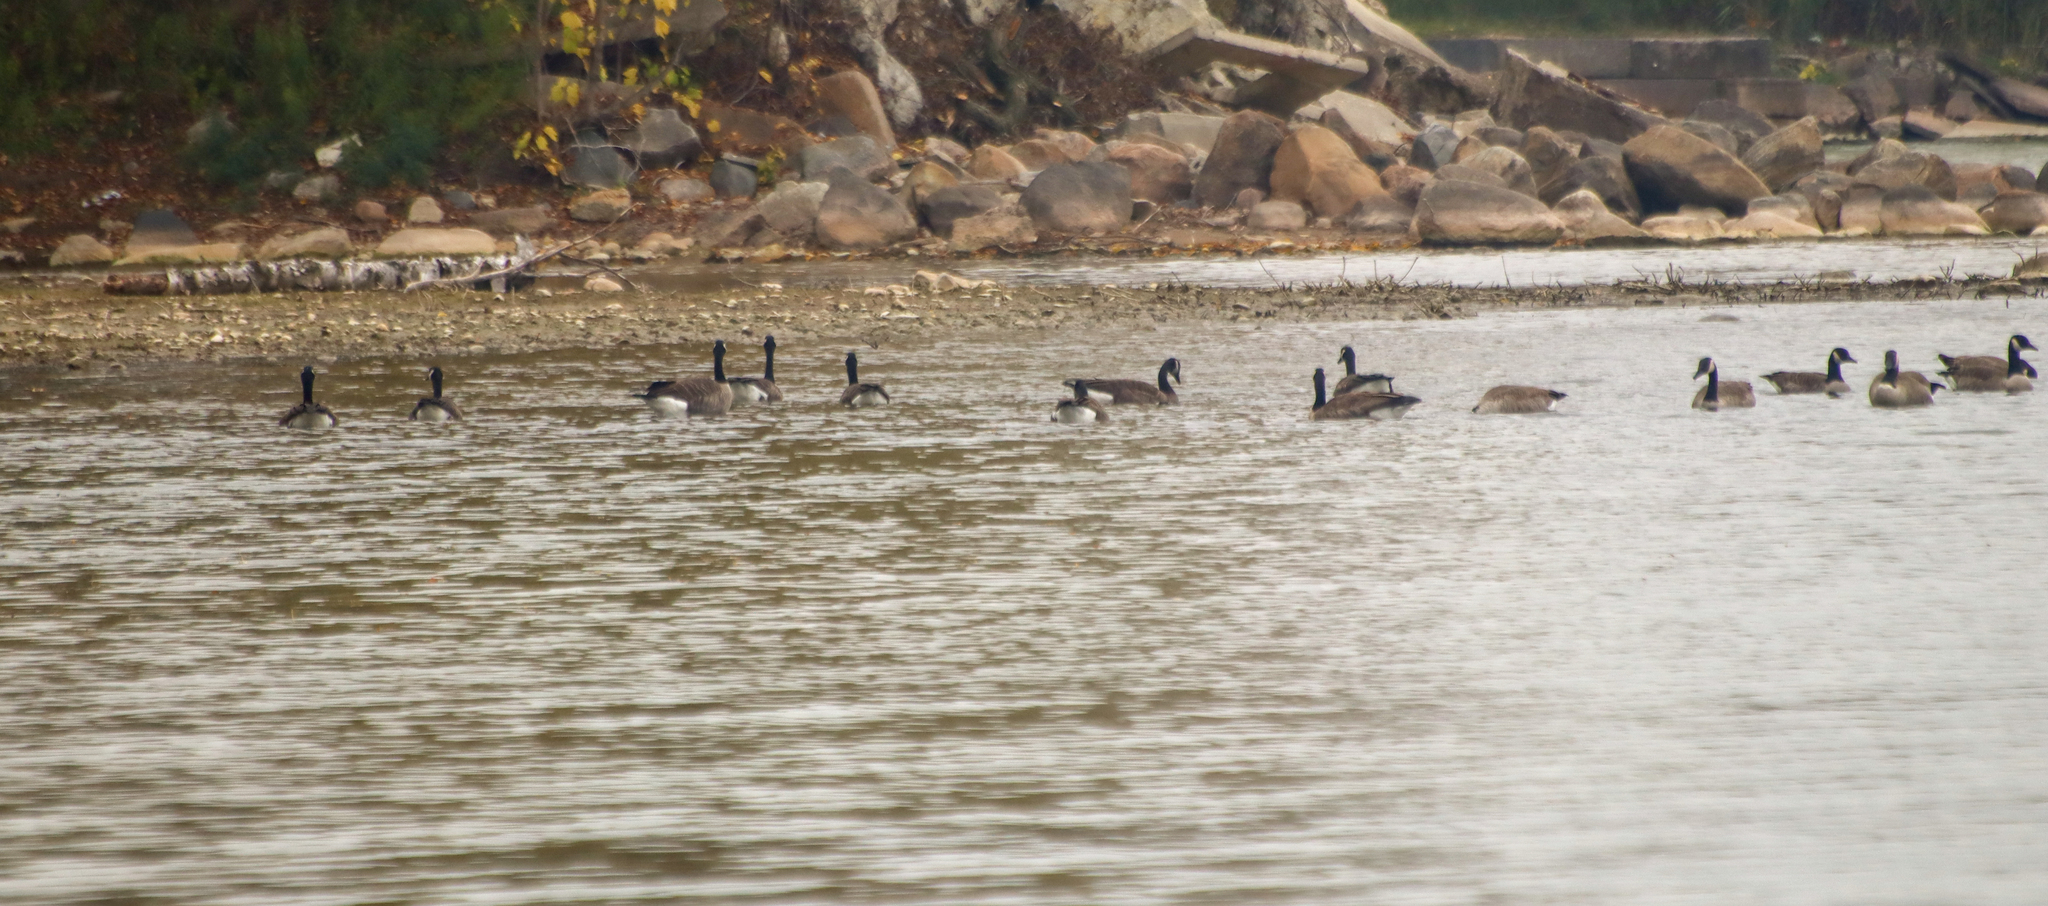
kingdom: Animalia
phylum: Chordata
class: Aves
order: Anseriformes
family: Anatidae
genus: Branta
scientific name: Branta canadensis
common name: Canada goose
